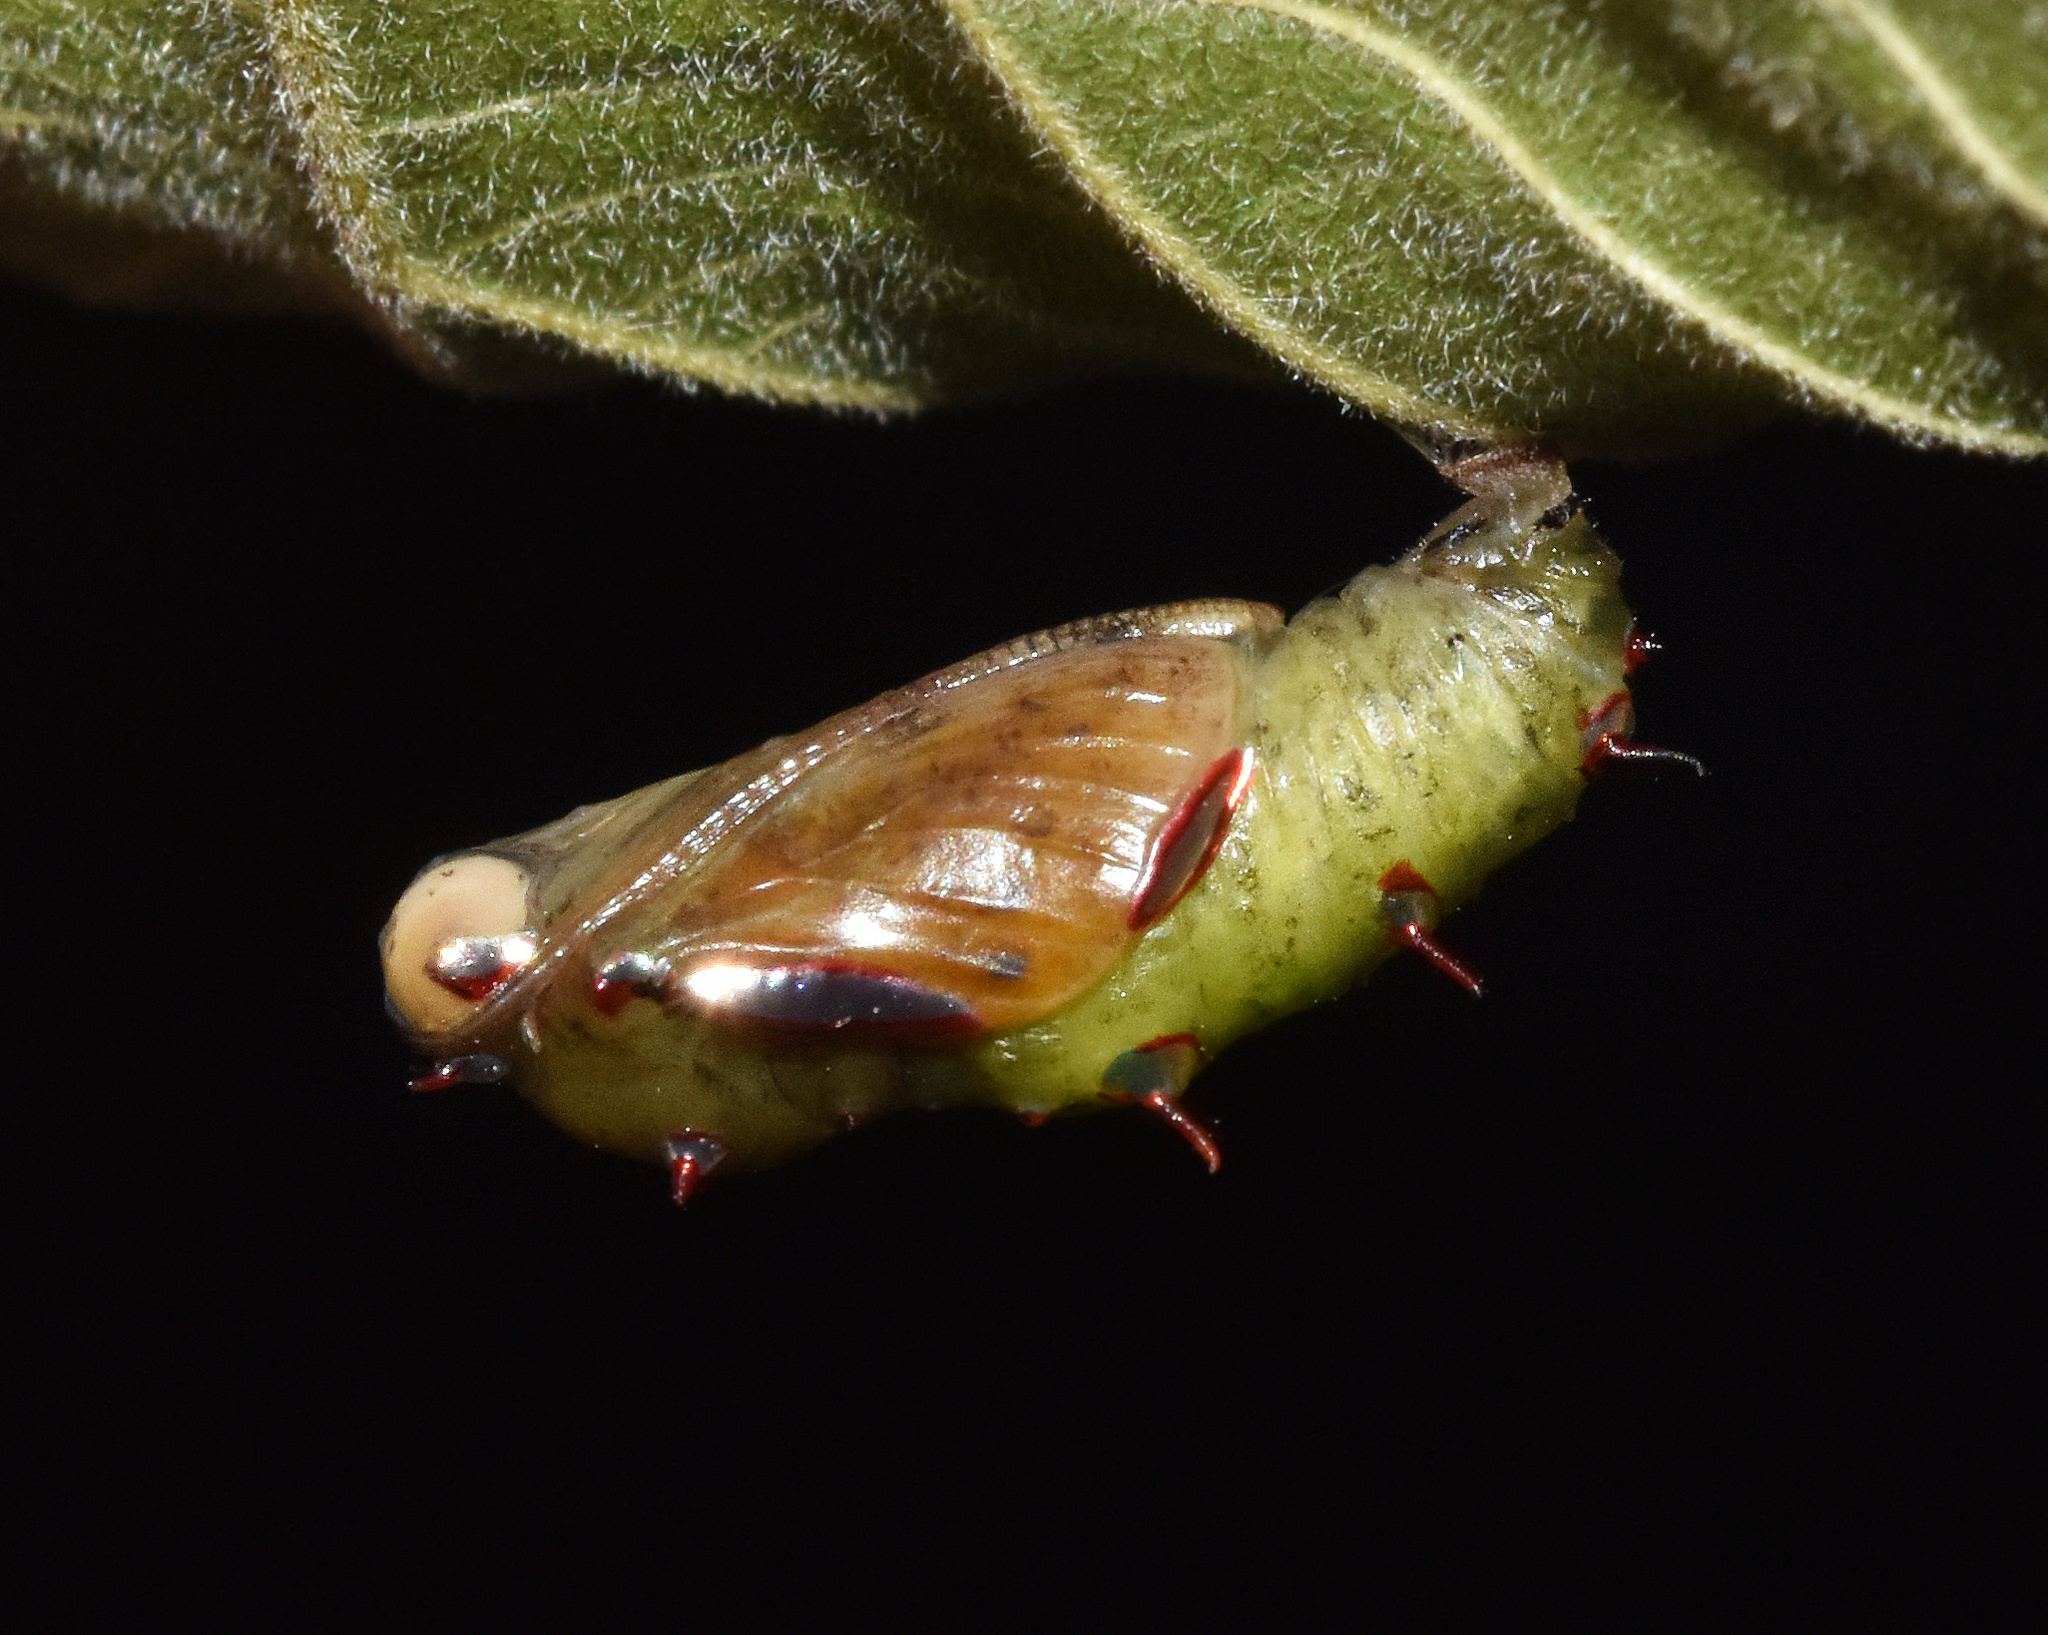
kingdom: Animalia
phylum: Arthropoda
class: Insecta
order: Lepidoptera
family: Nymphalidae
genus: Phalanta
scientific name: Phalanta columbina
